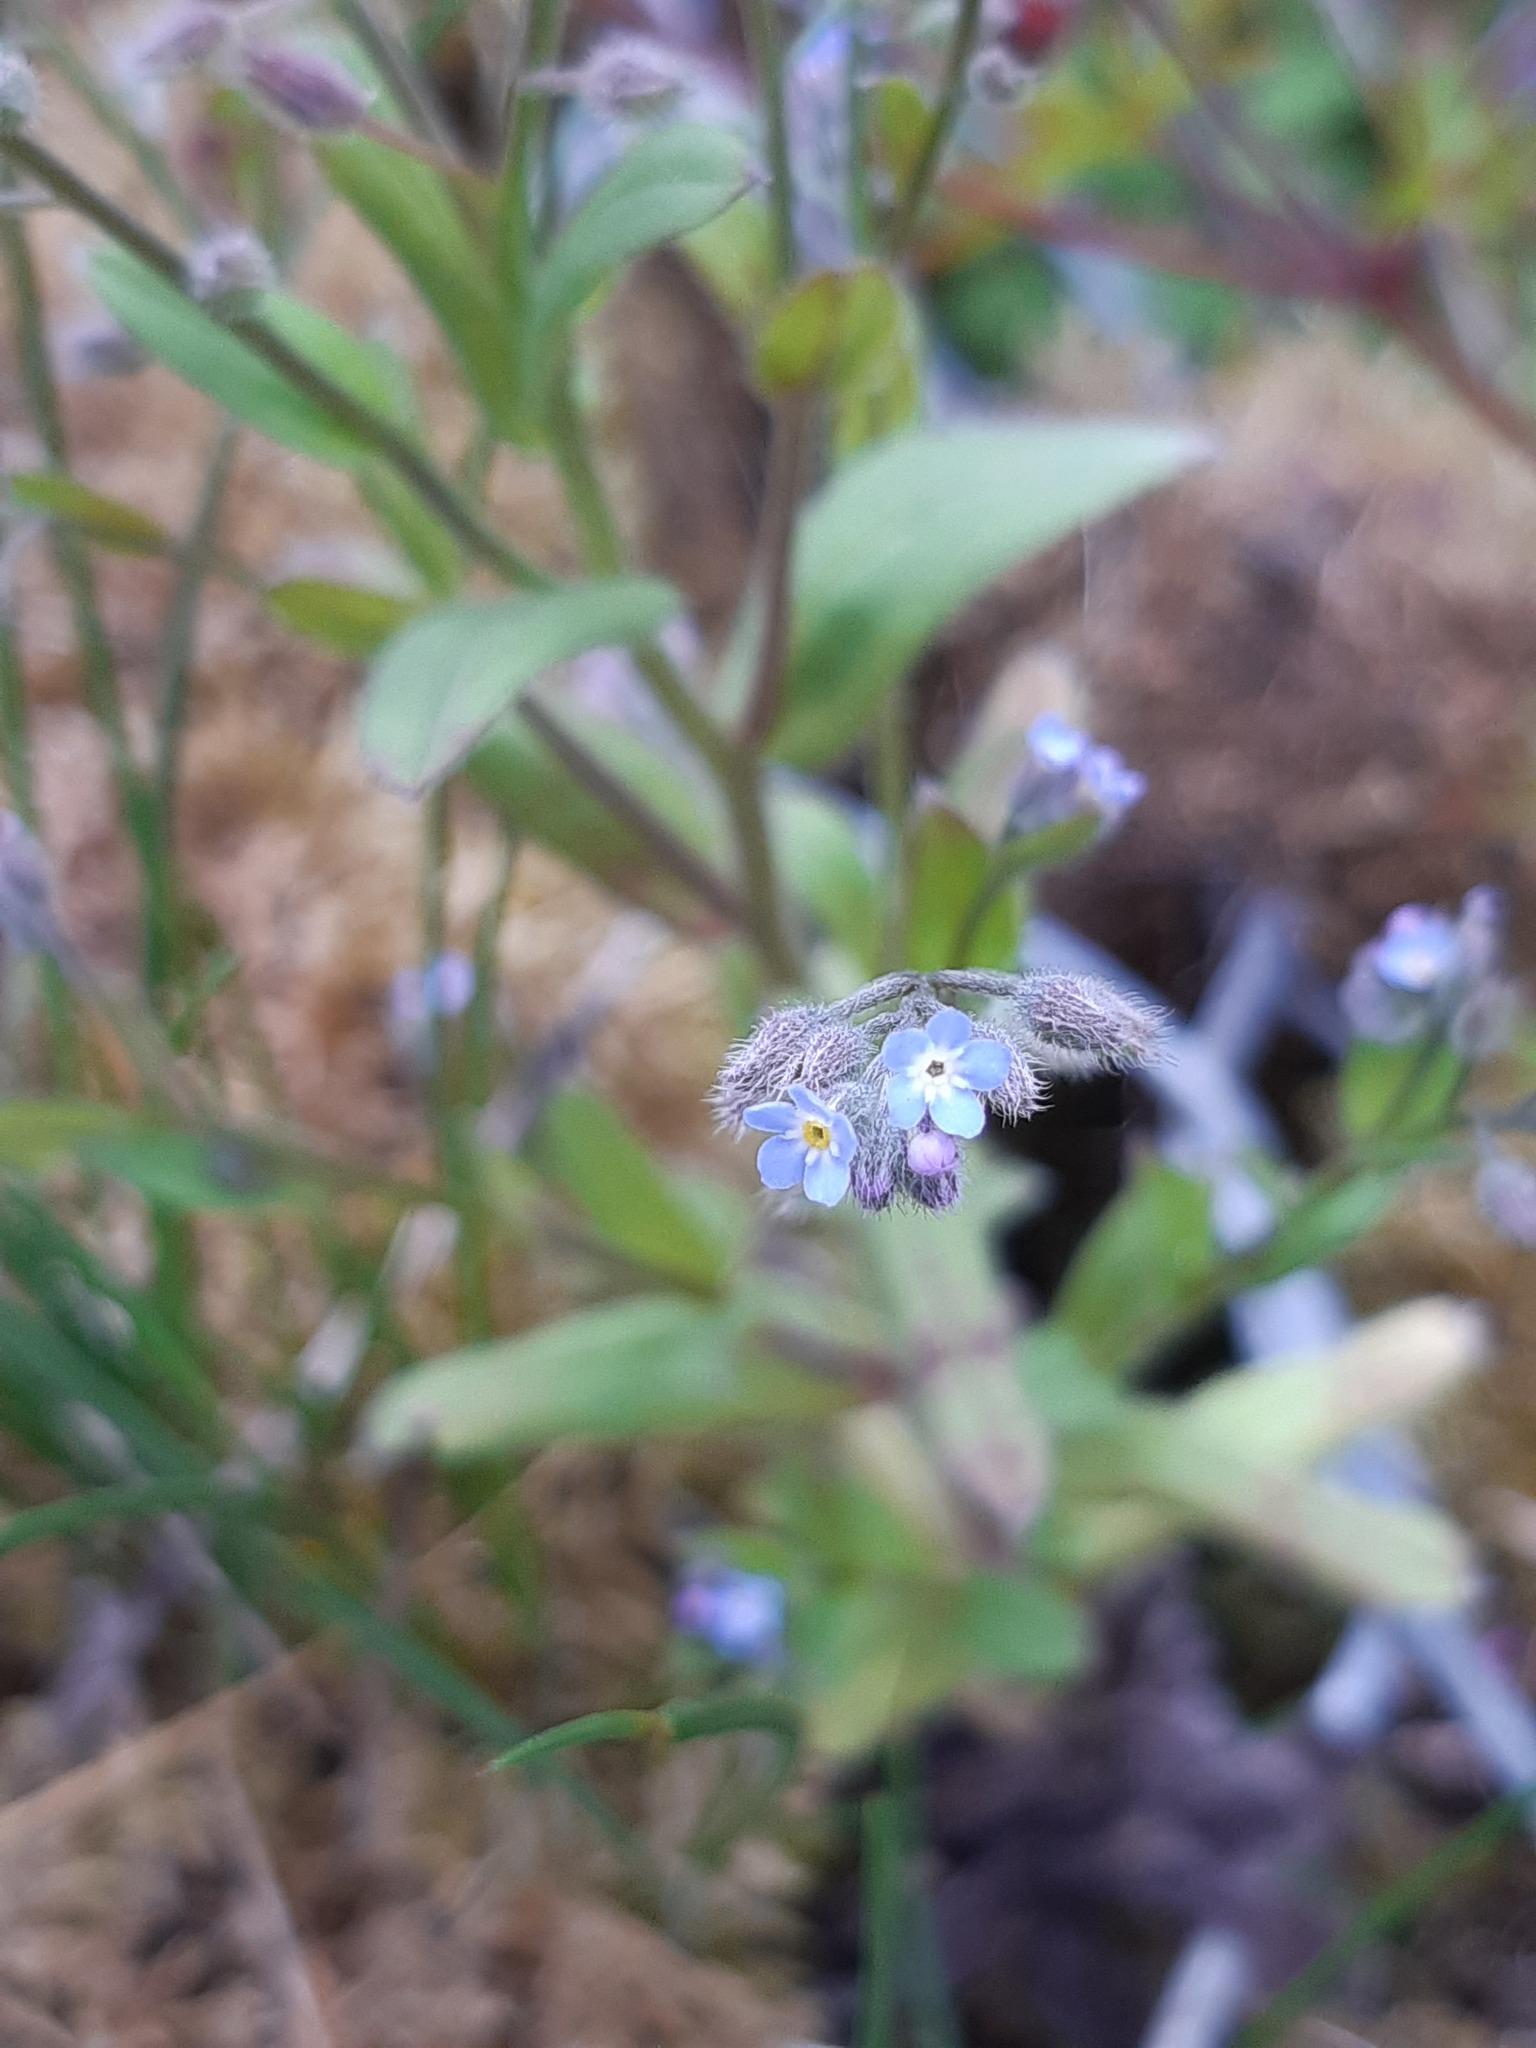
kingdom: Plantae
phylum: Tracheophyta
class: Magnoliopsida
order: Boraginales
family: Boraginaceae
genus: Myosotis
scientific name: Myosotis arvensis
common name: Field forget-me-not
